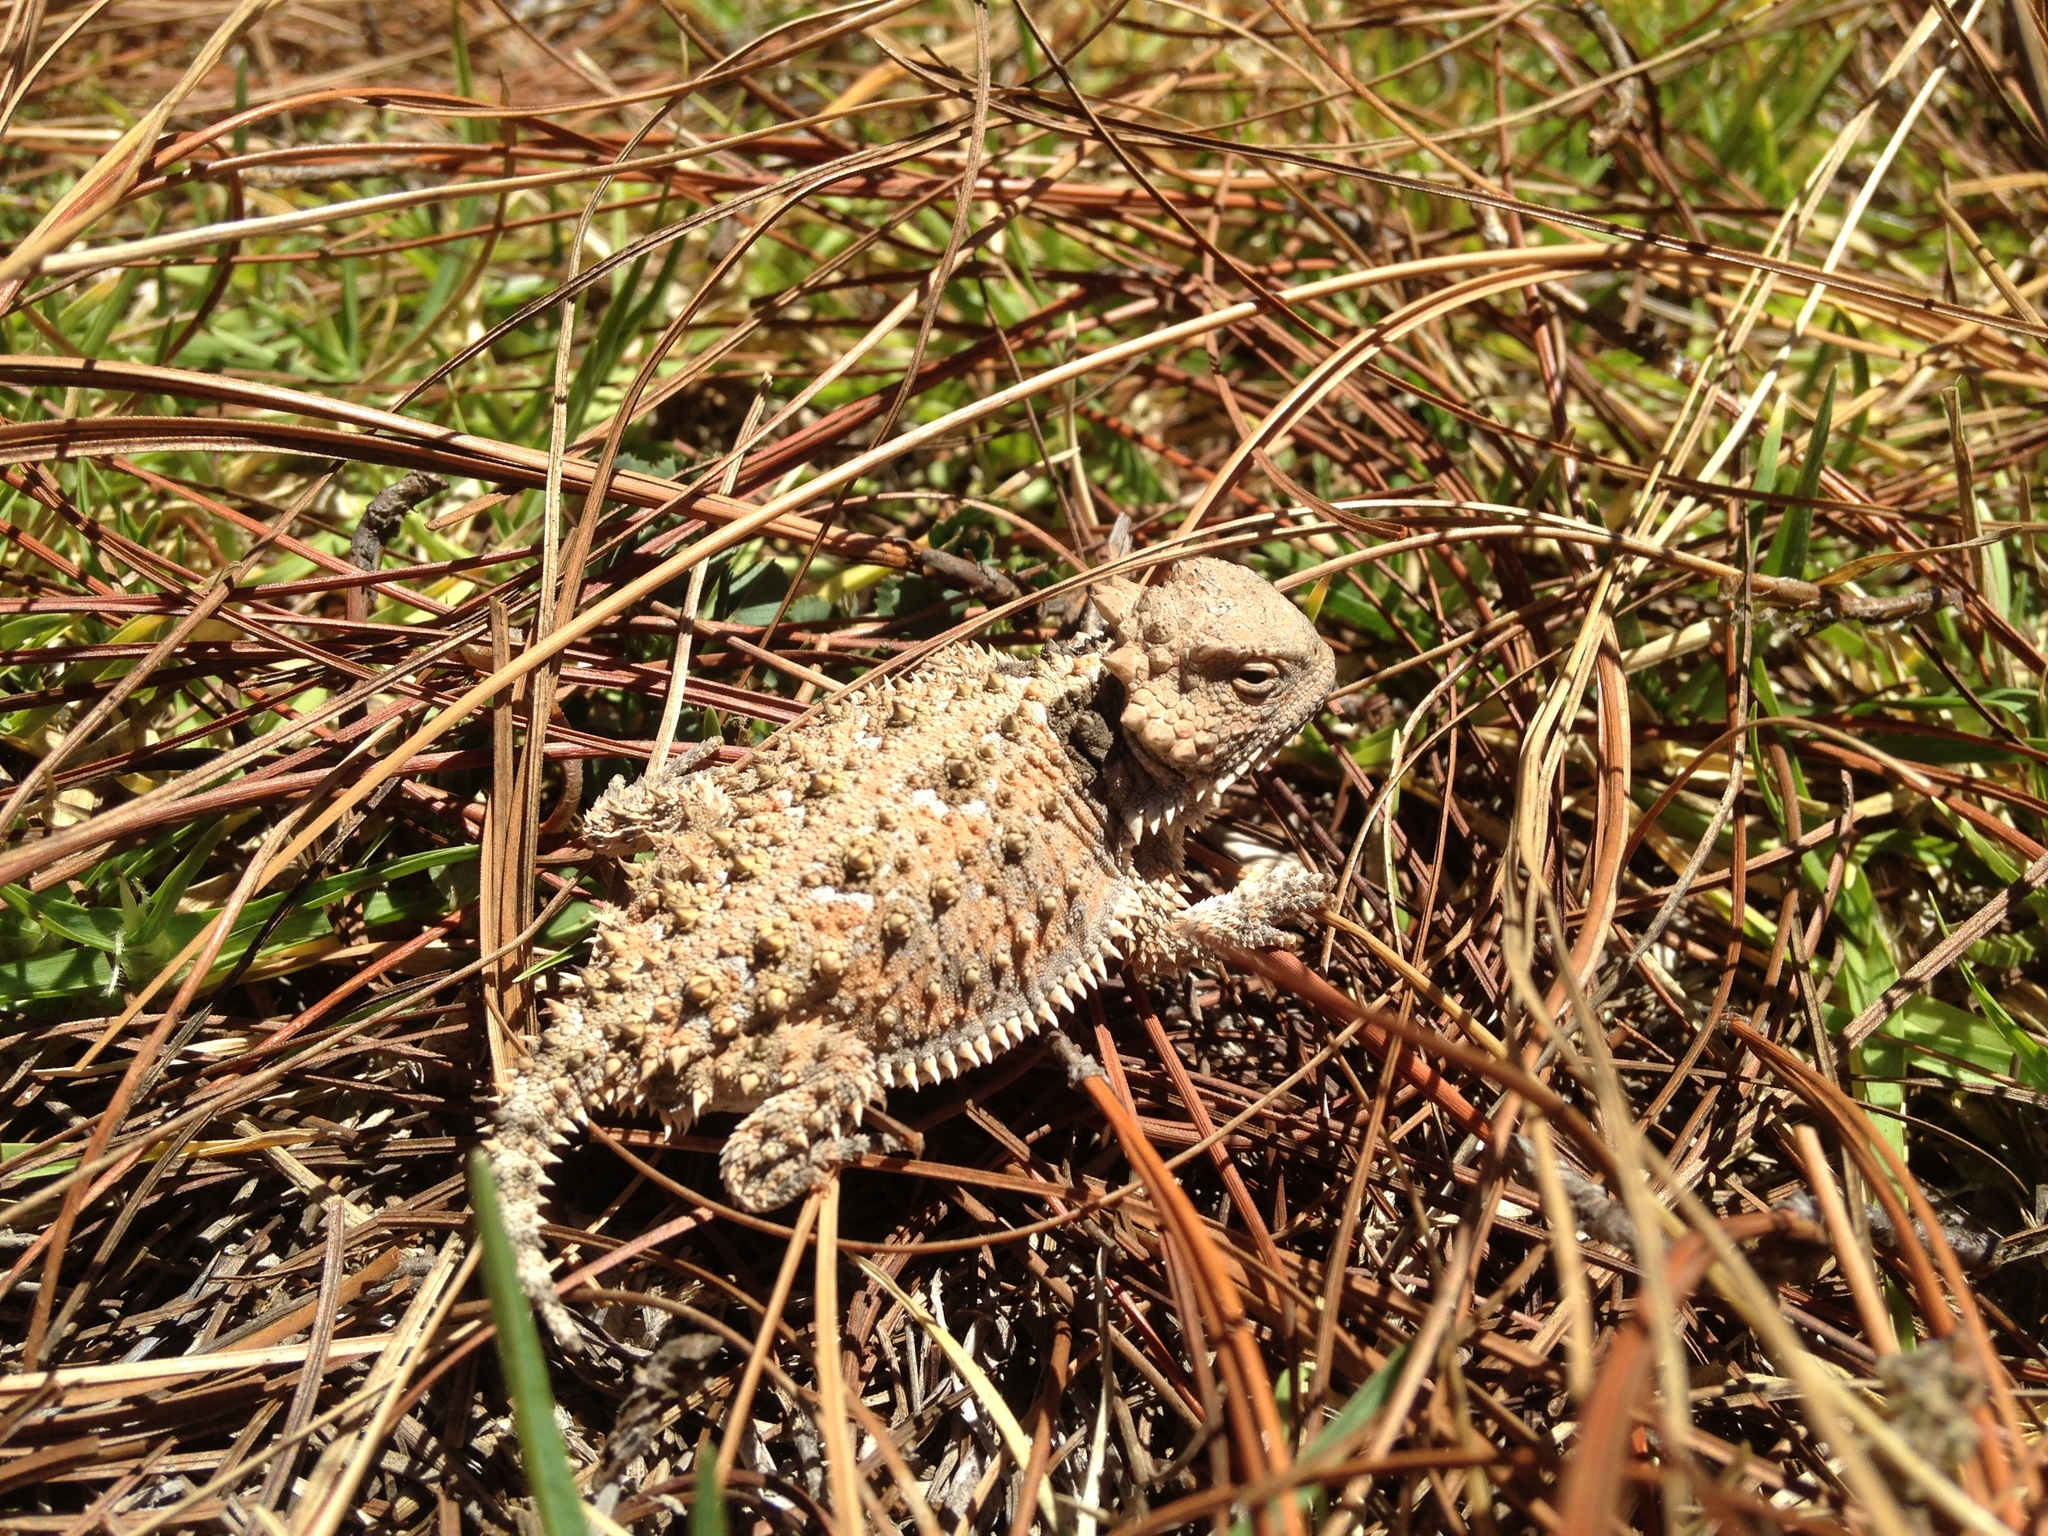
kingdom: Animalia
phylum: Chordata
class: Squamata
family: Phrynosomatidae
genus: Phrynosoma
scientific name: Phrynosoma orbiculare
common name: Mountain horned lizard
